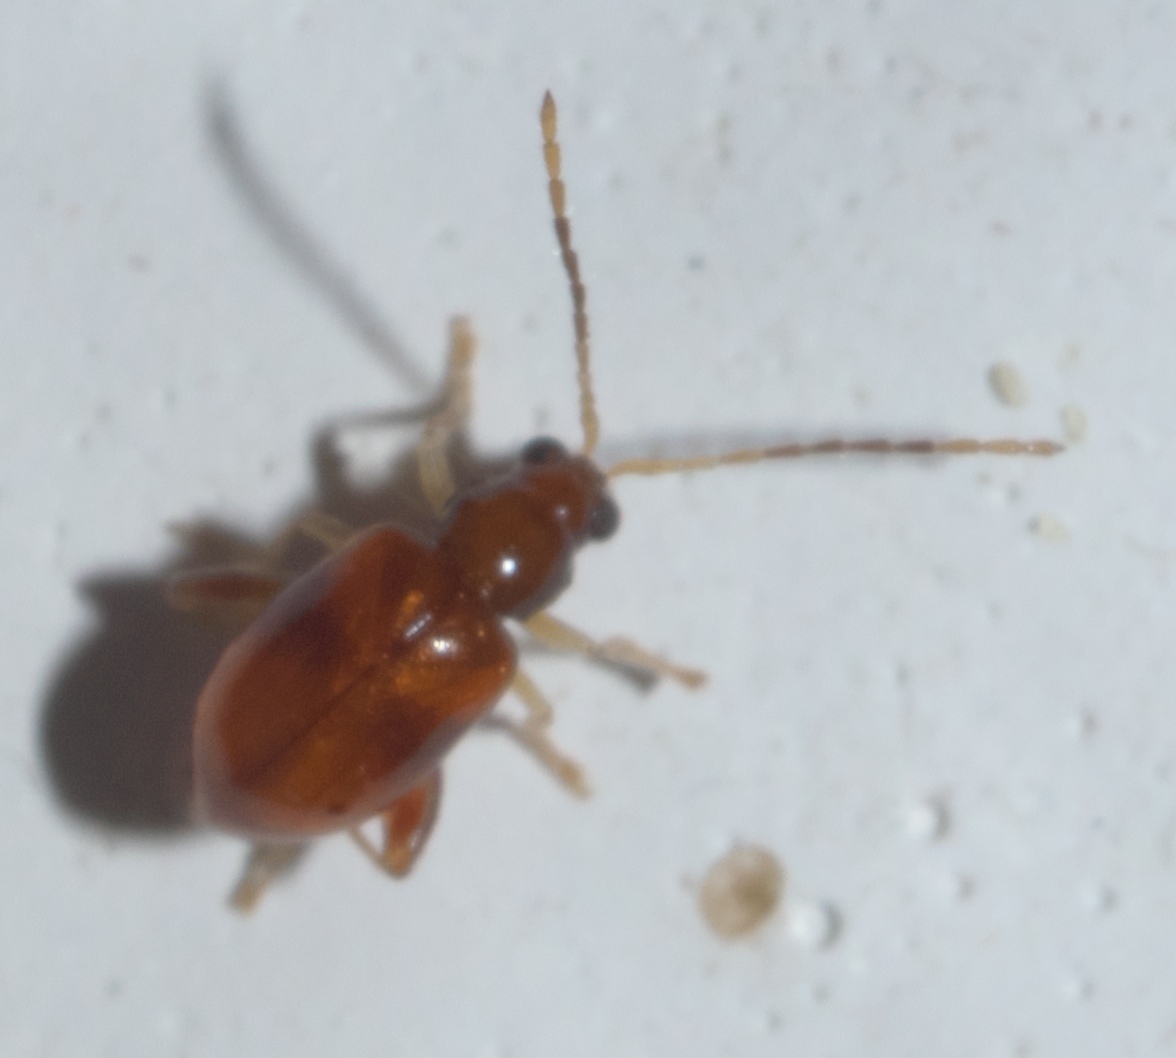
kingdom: Animalia
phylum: Arthropoda
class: Insecta
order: Coleoptera
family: Chrysomelidae
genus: Longitarsus
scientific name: Longitarsus varicornis
